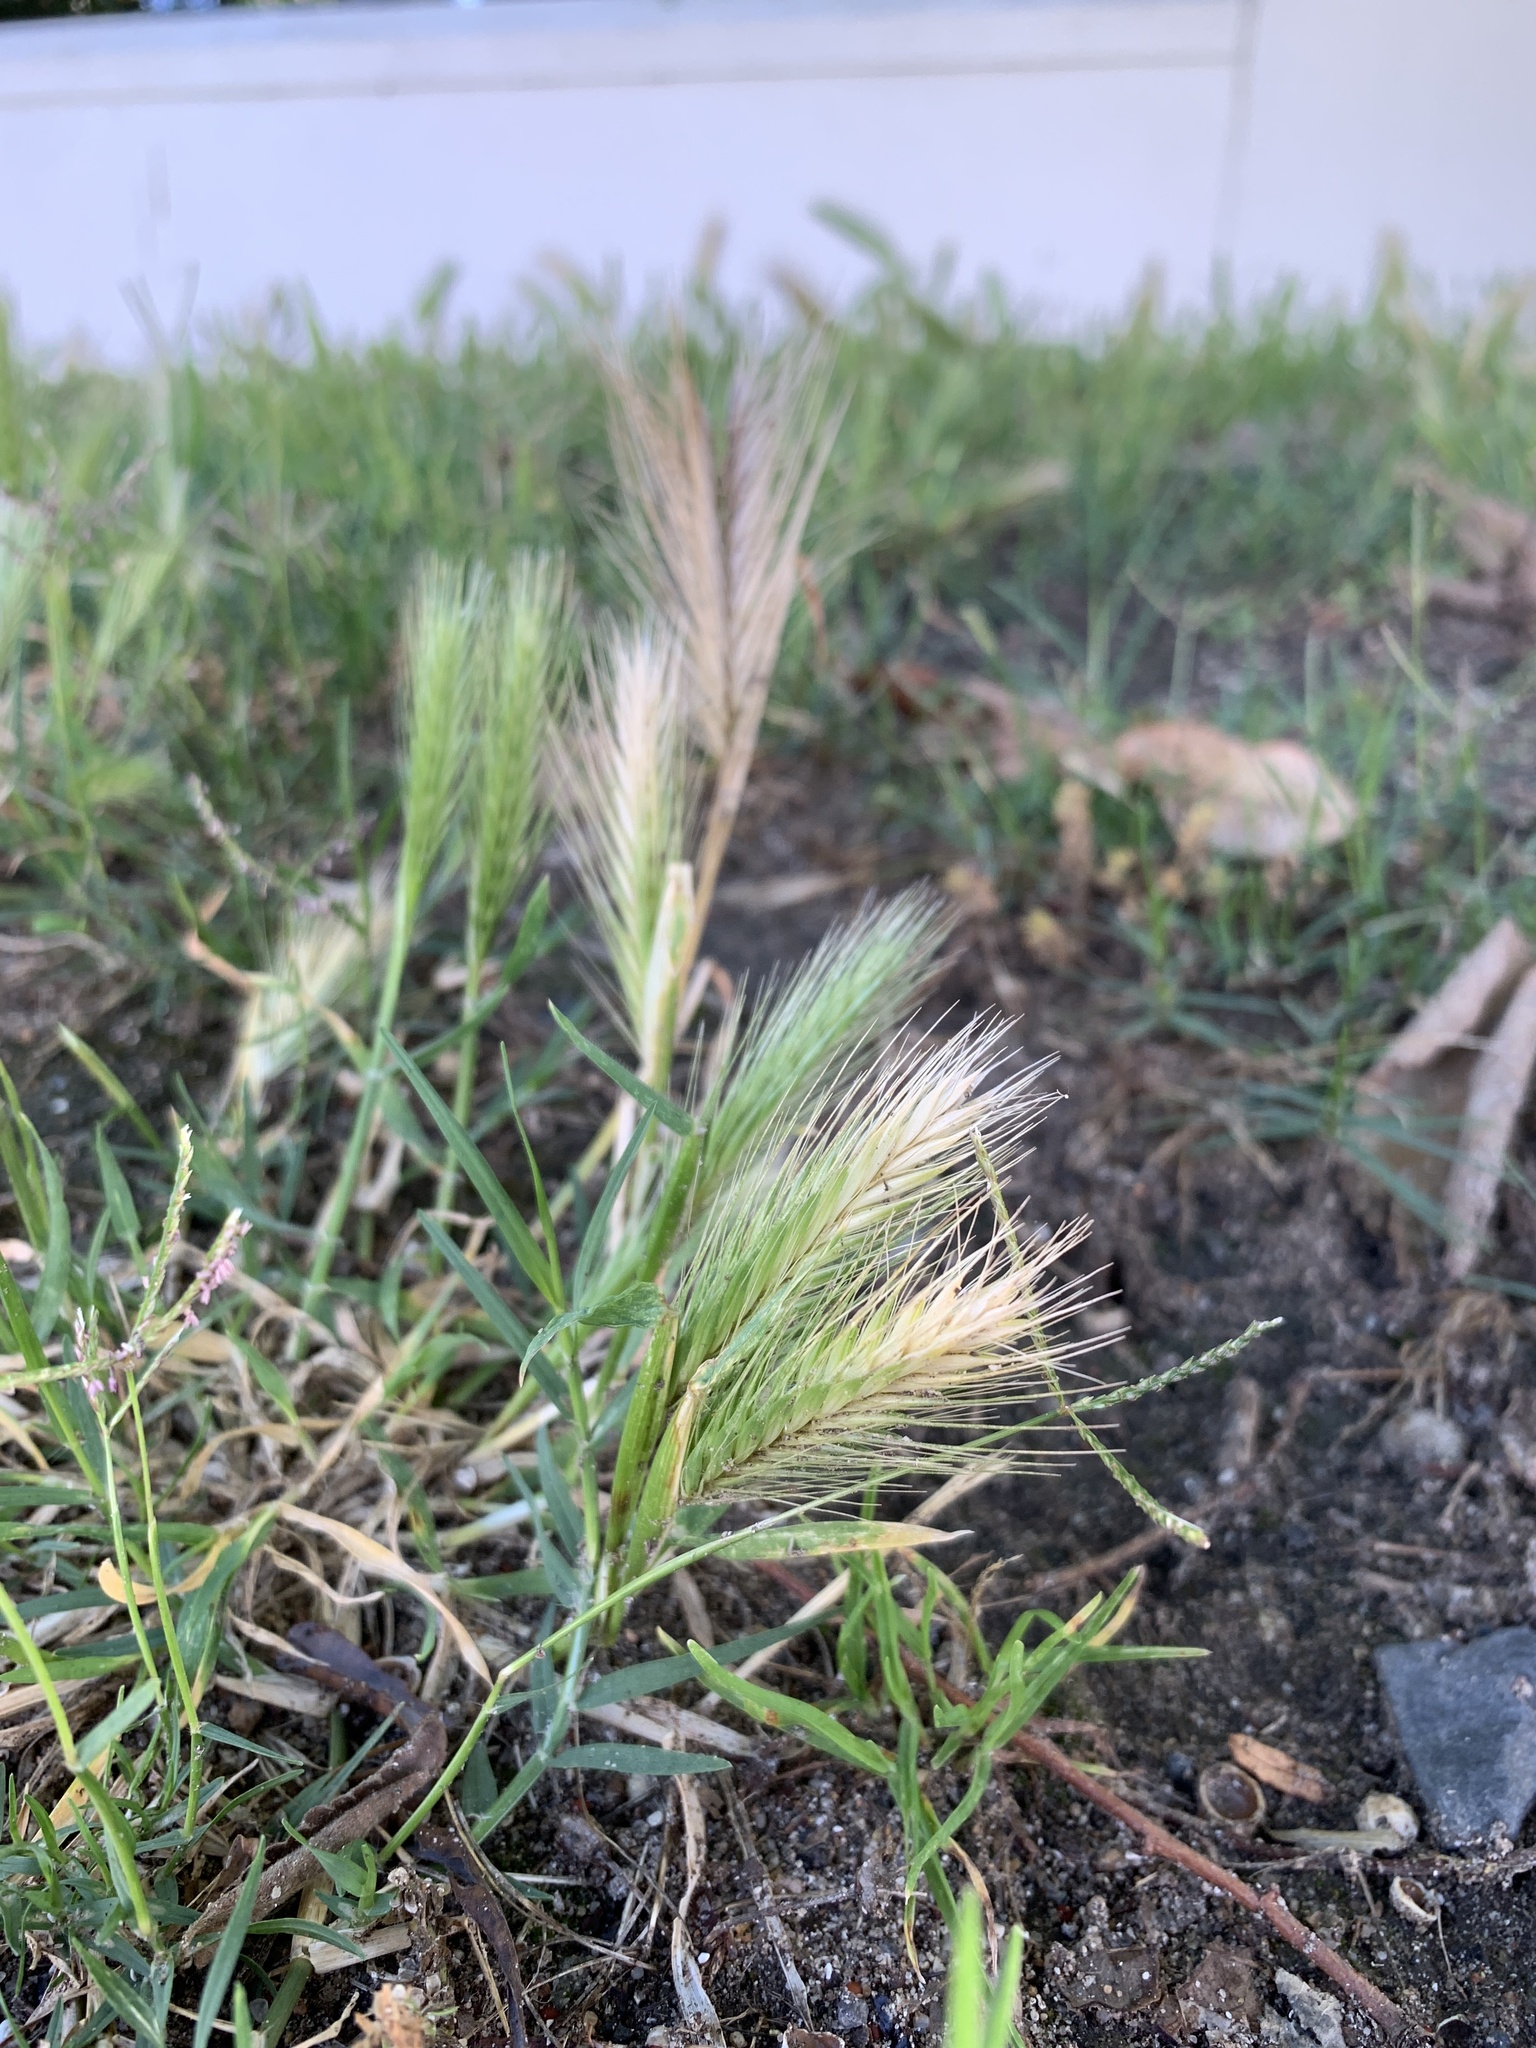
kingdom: Plantae
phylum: Tracheophyta
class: Liliopsida
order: Poales
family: Poaceae
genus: Hordeum
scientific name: Hordeum murinum
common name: Wall barley
